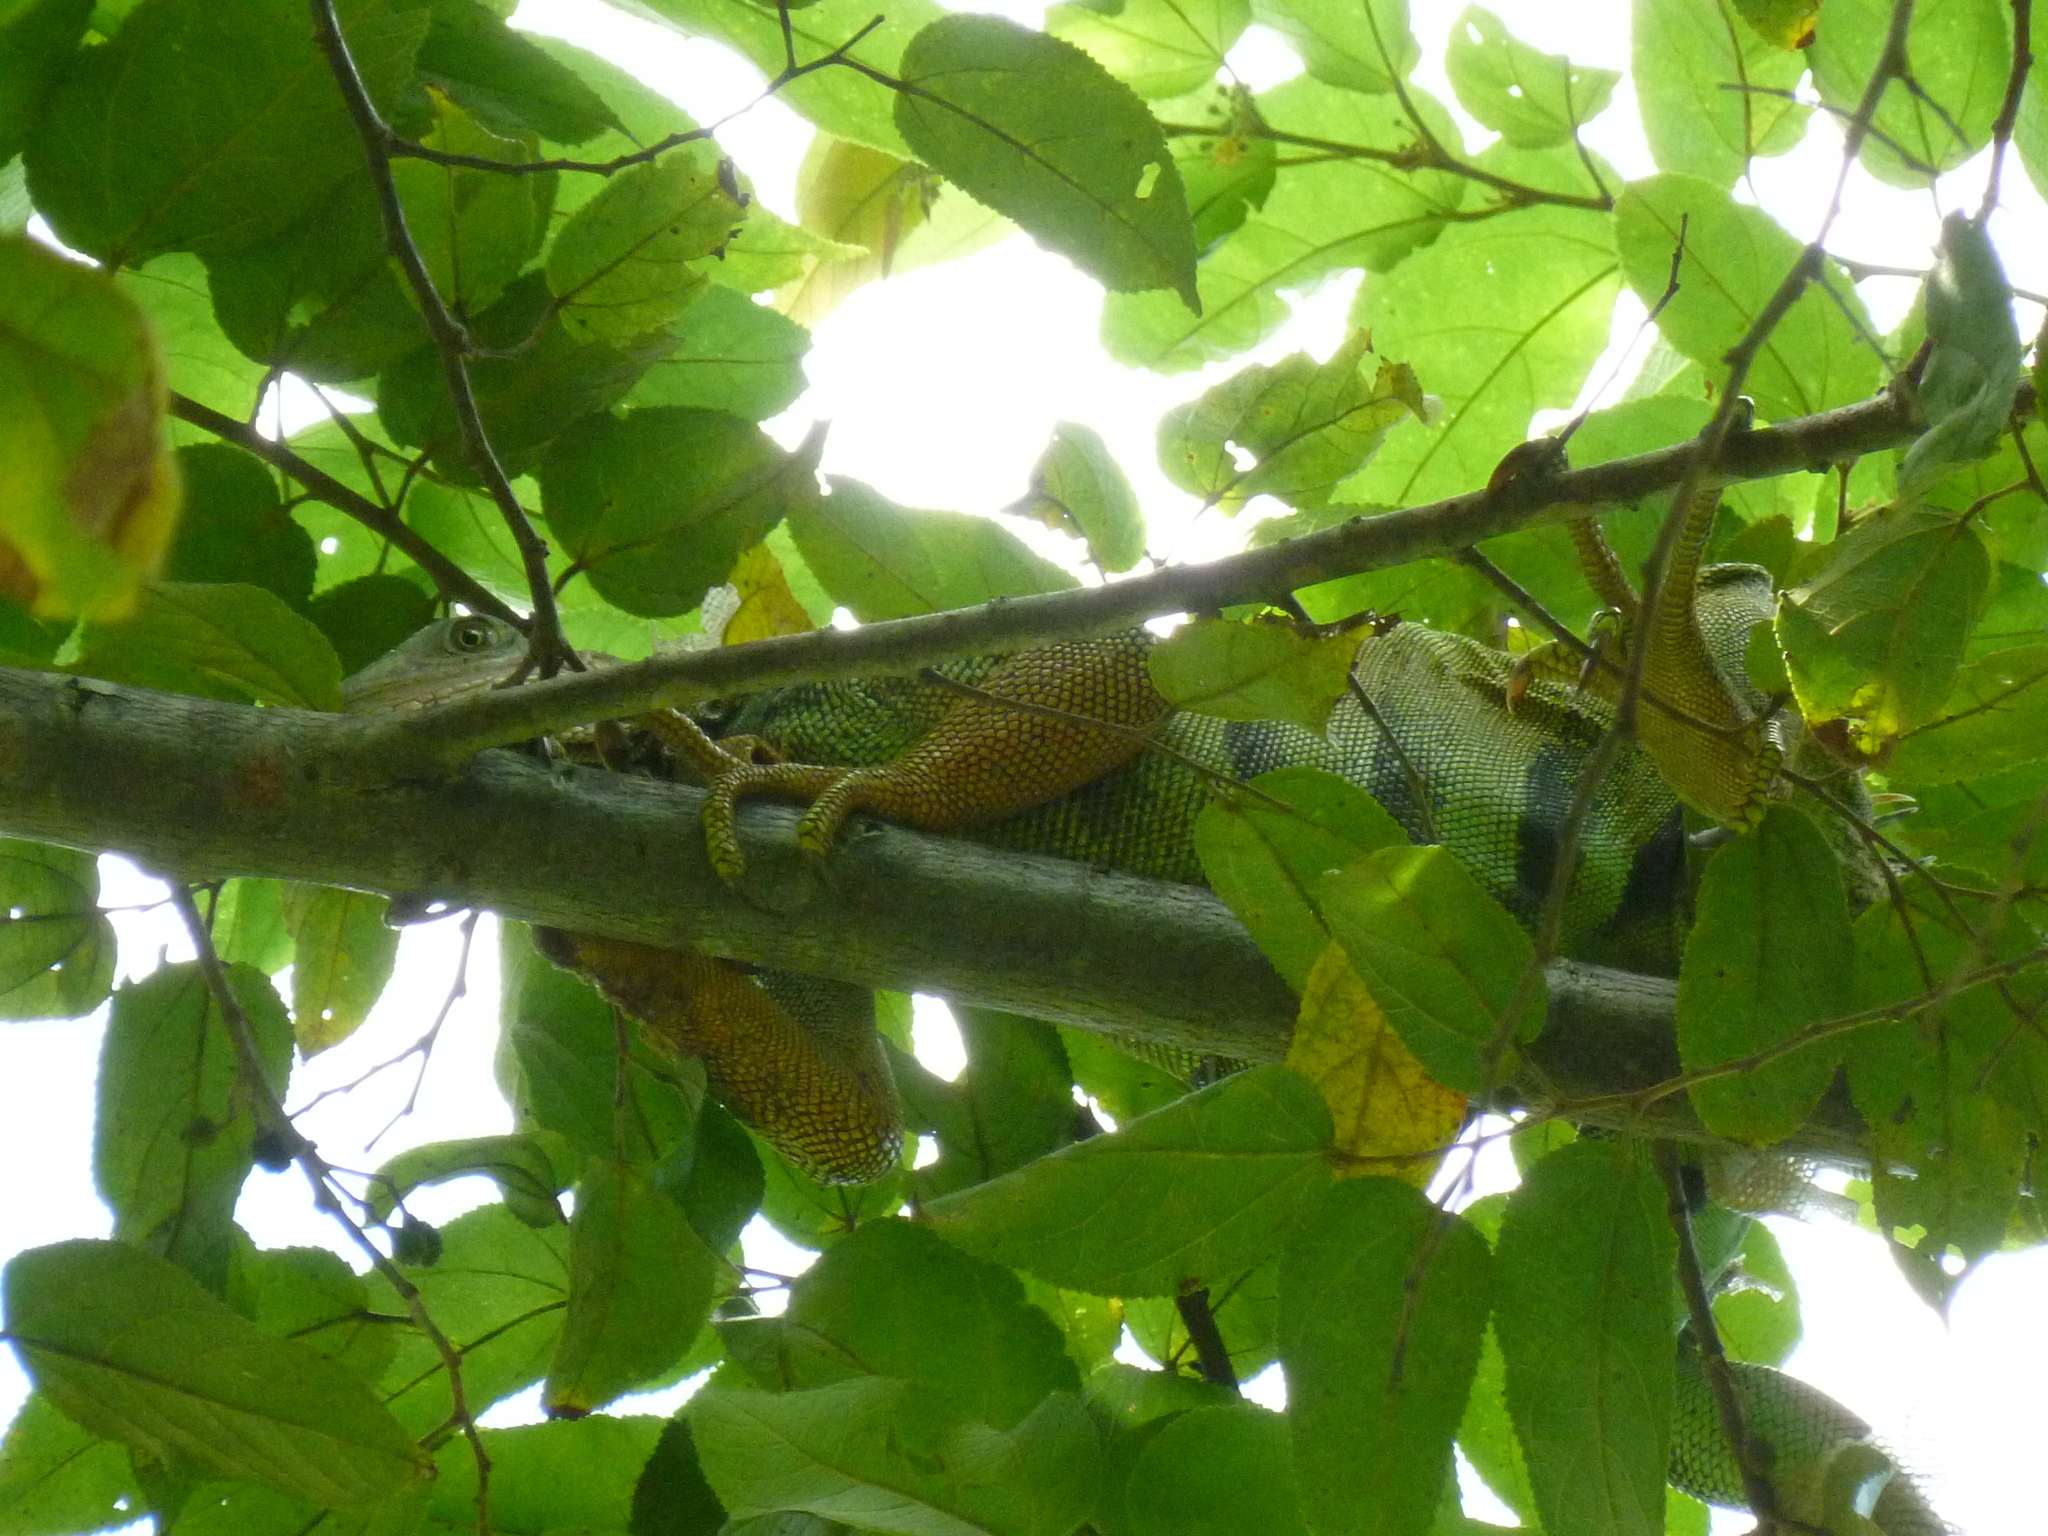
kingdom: Animalia
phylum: Chordata
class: Squamata
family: Iguanidae
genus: Iguana
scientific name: Iguana iguana
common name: Green iguana
